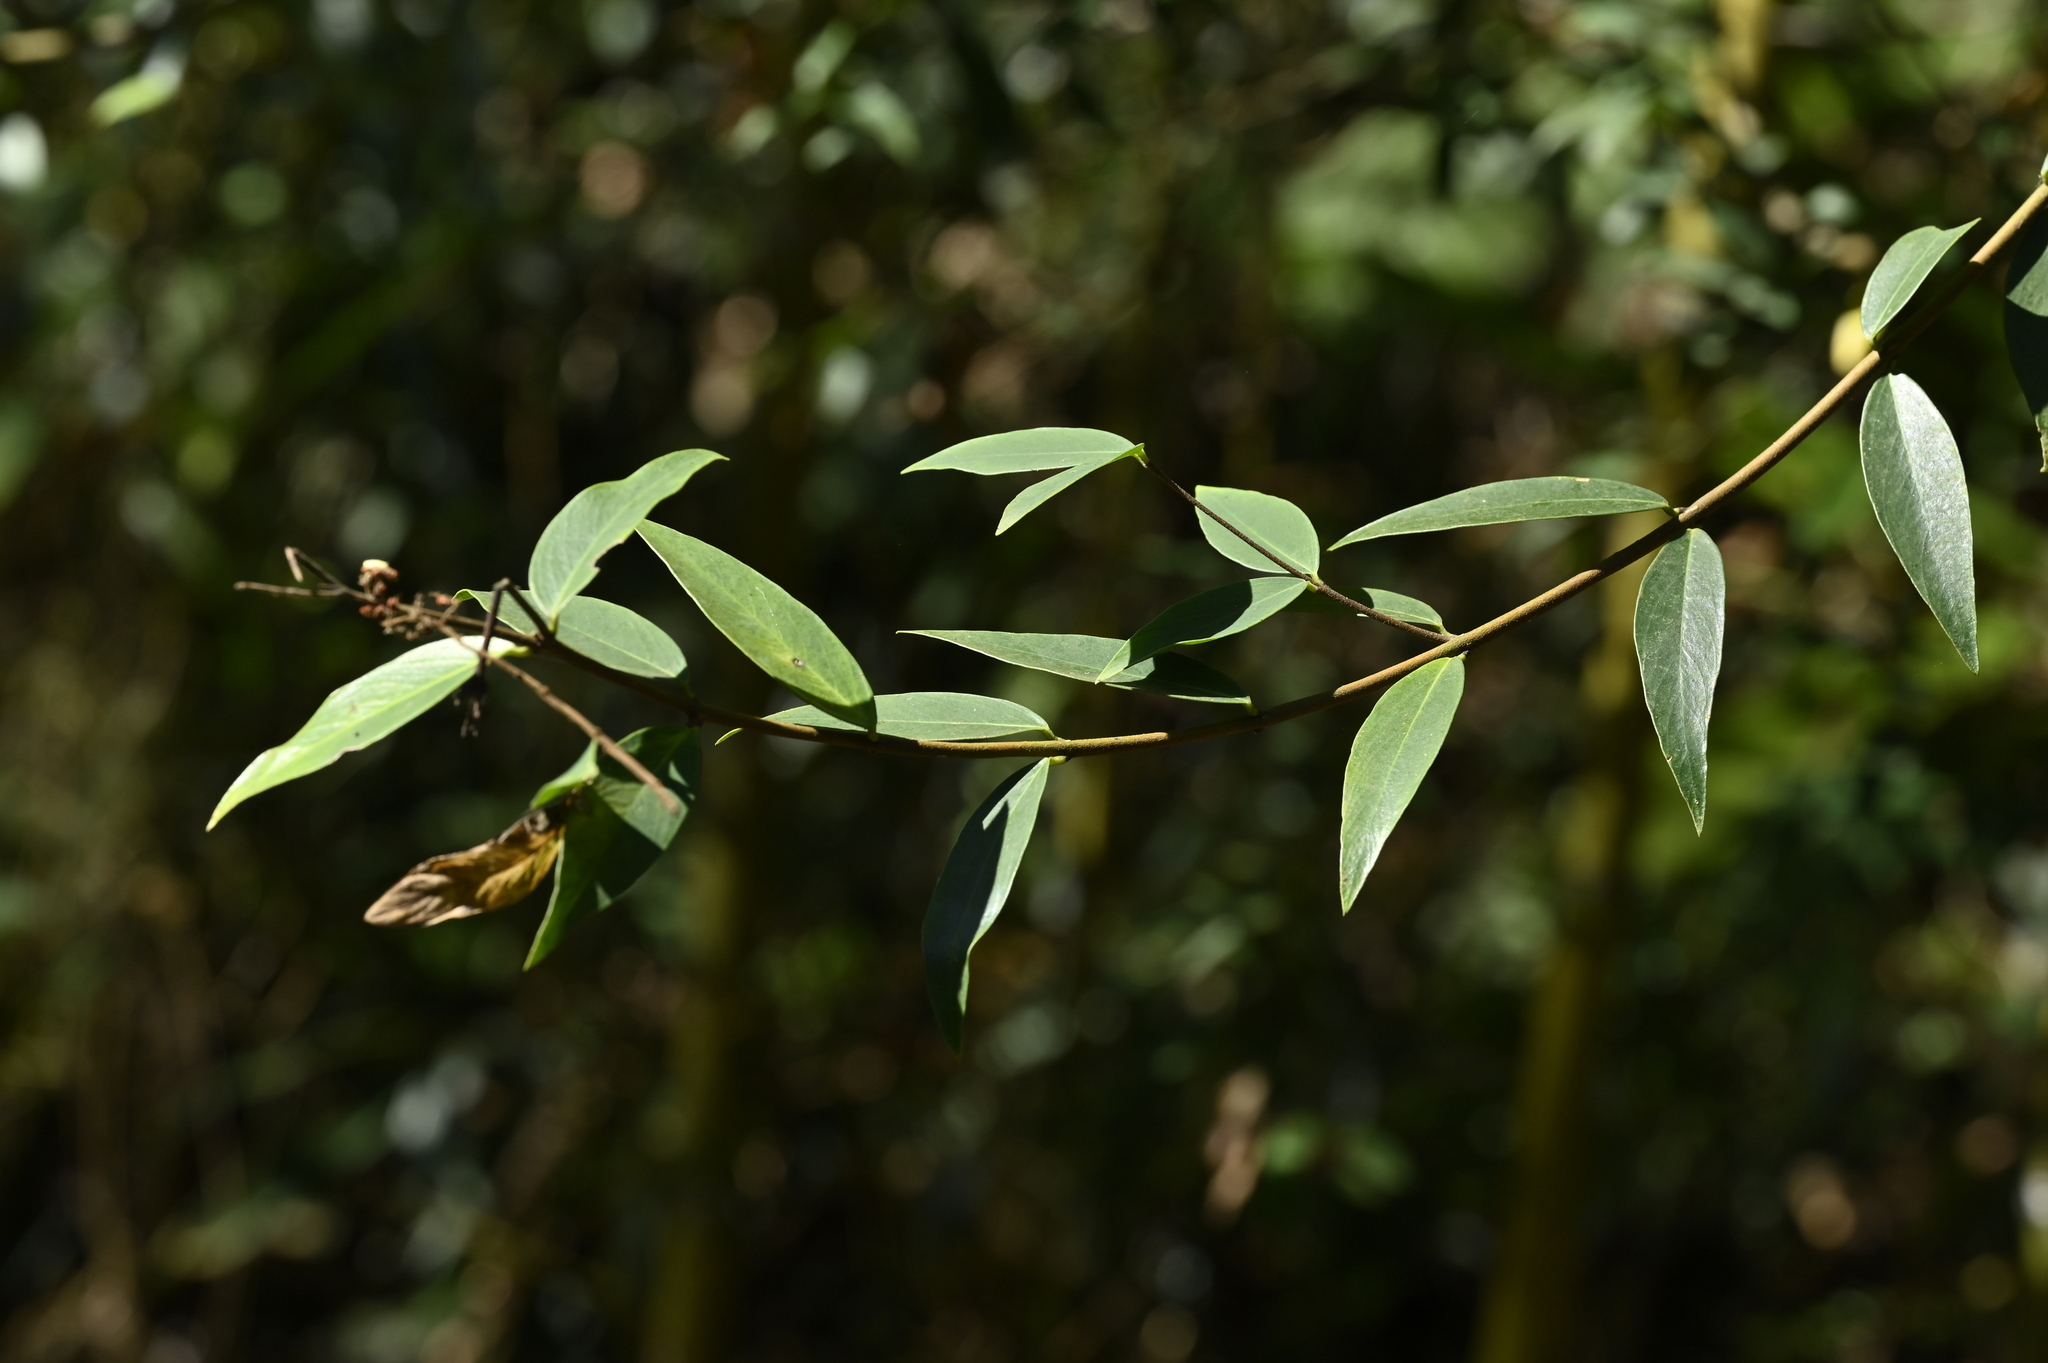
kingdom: Plantae
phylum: Tracheophyta
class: Magnoliopsida
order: Malvales
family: Thymelaeaceae
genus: Wikstroemia
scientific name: Wikstroemia lanceolata
